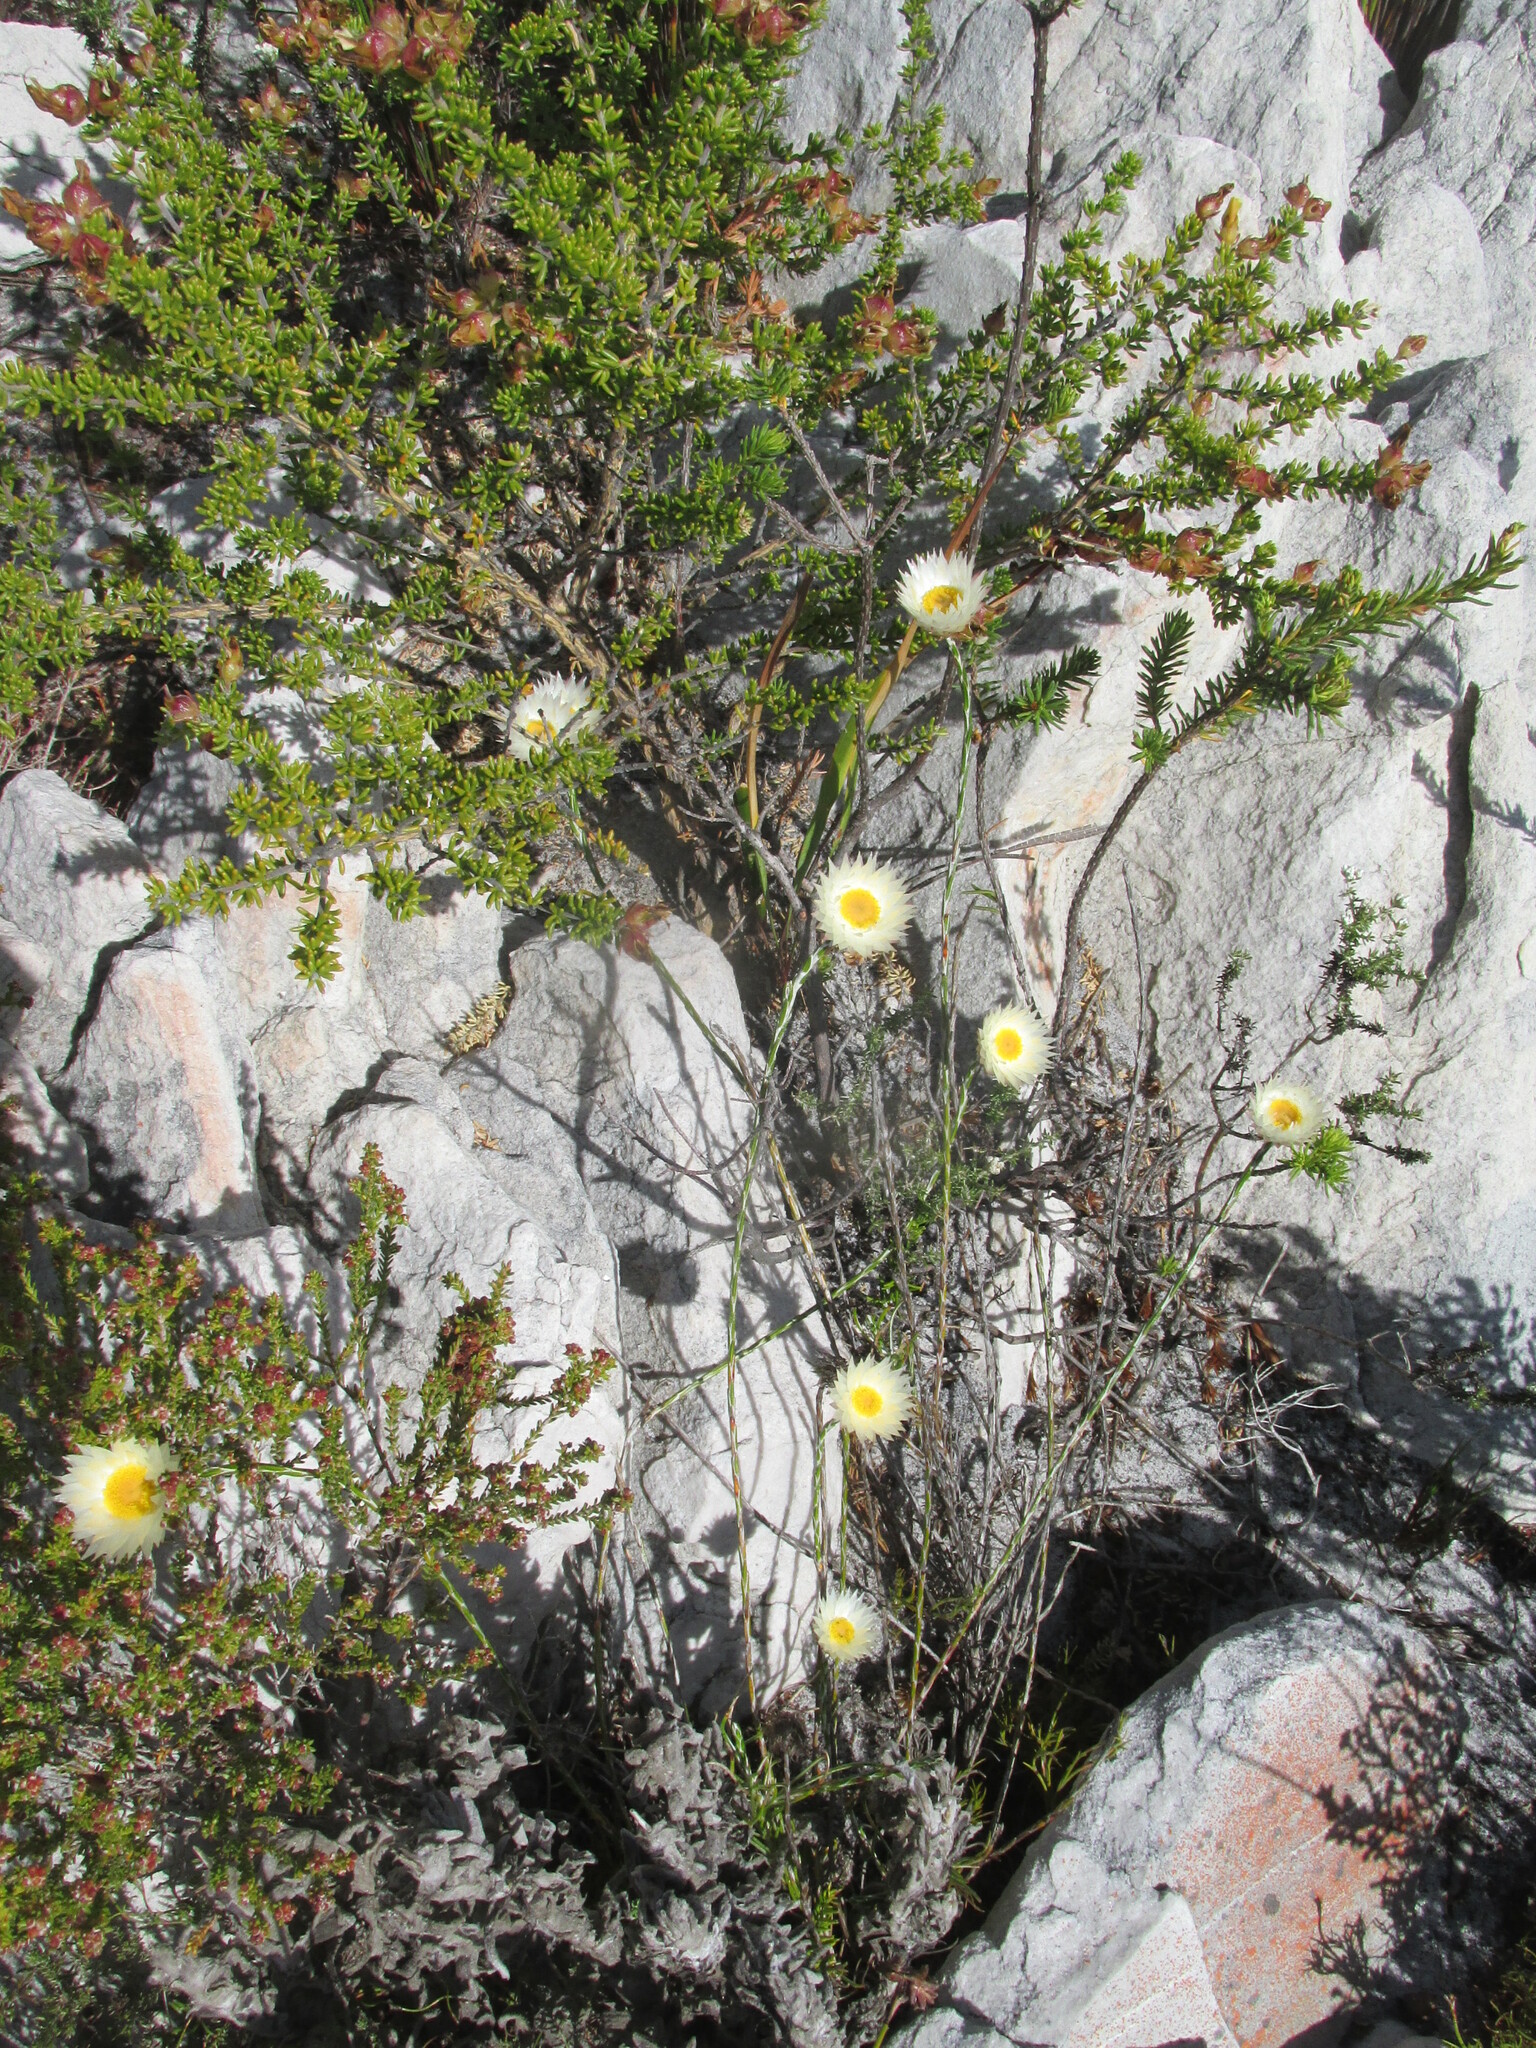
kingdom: Plantae
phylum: Tracheophyta
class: Magnoliopsida
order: Asterales
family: Asteraceae
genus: Edmondia
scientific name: Edmondia sesamoides
